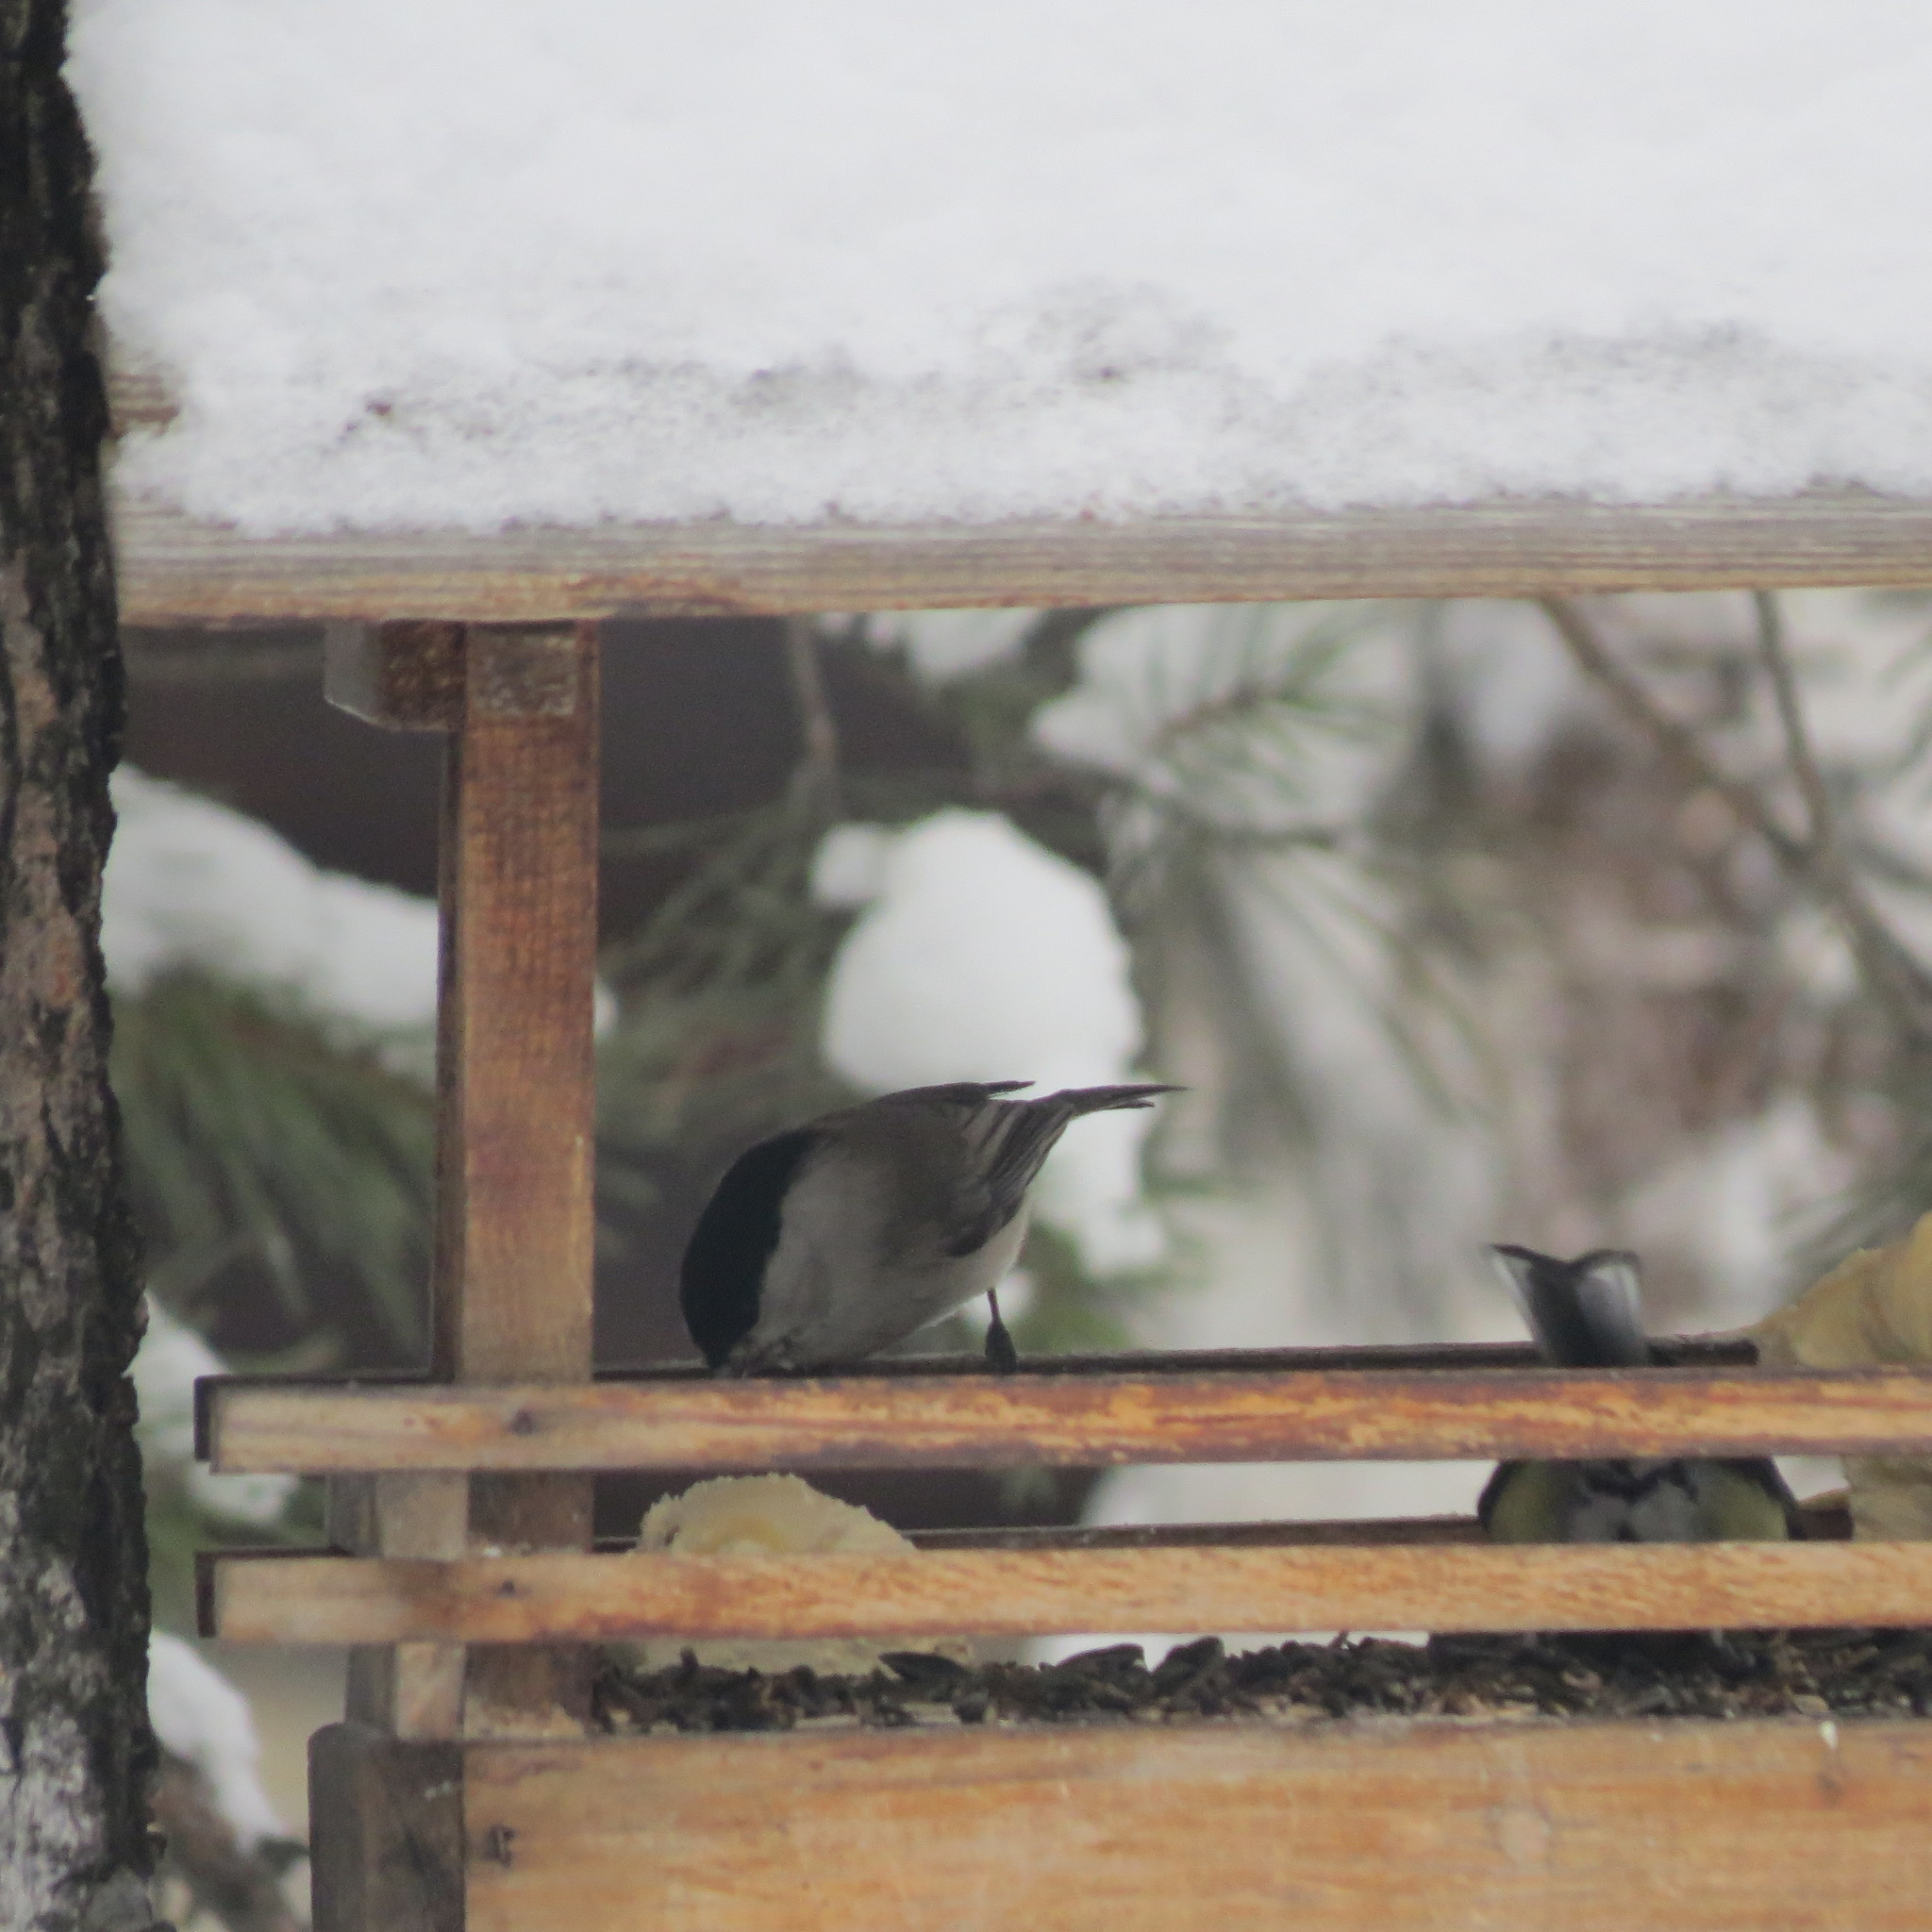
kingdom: Animalia
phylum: Chordata
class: Aves
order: Passeriformes
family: Paridae
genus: Poecile
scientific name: Poecile montanus
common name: Willow tit
